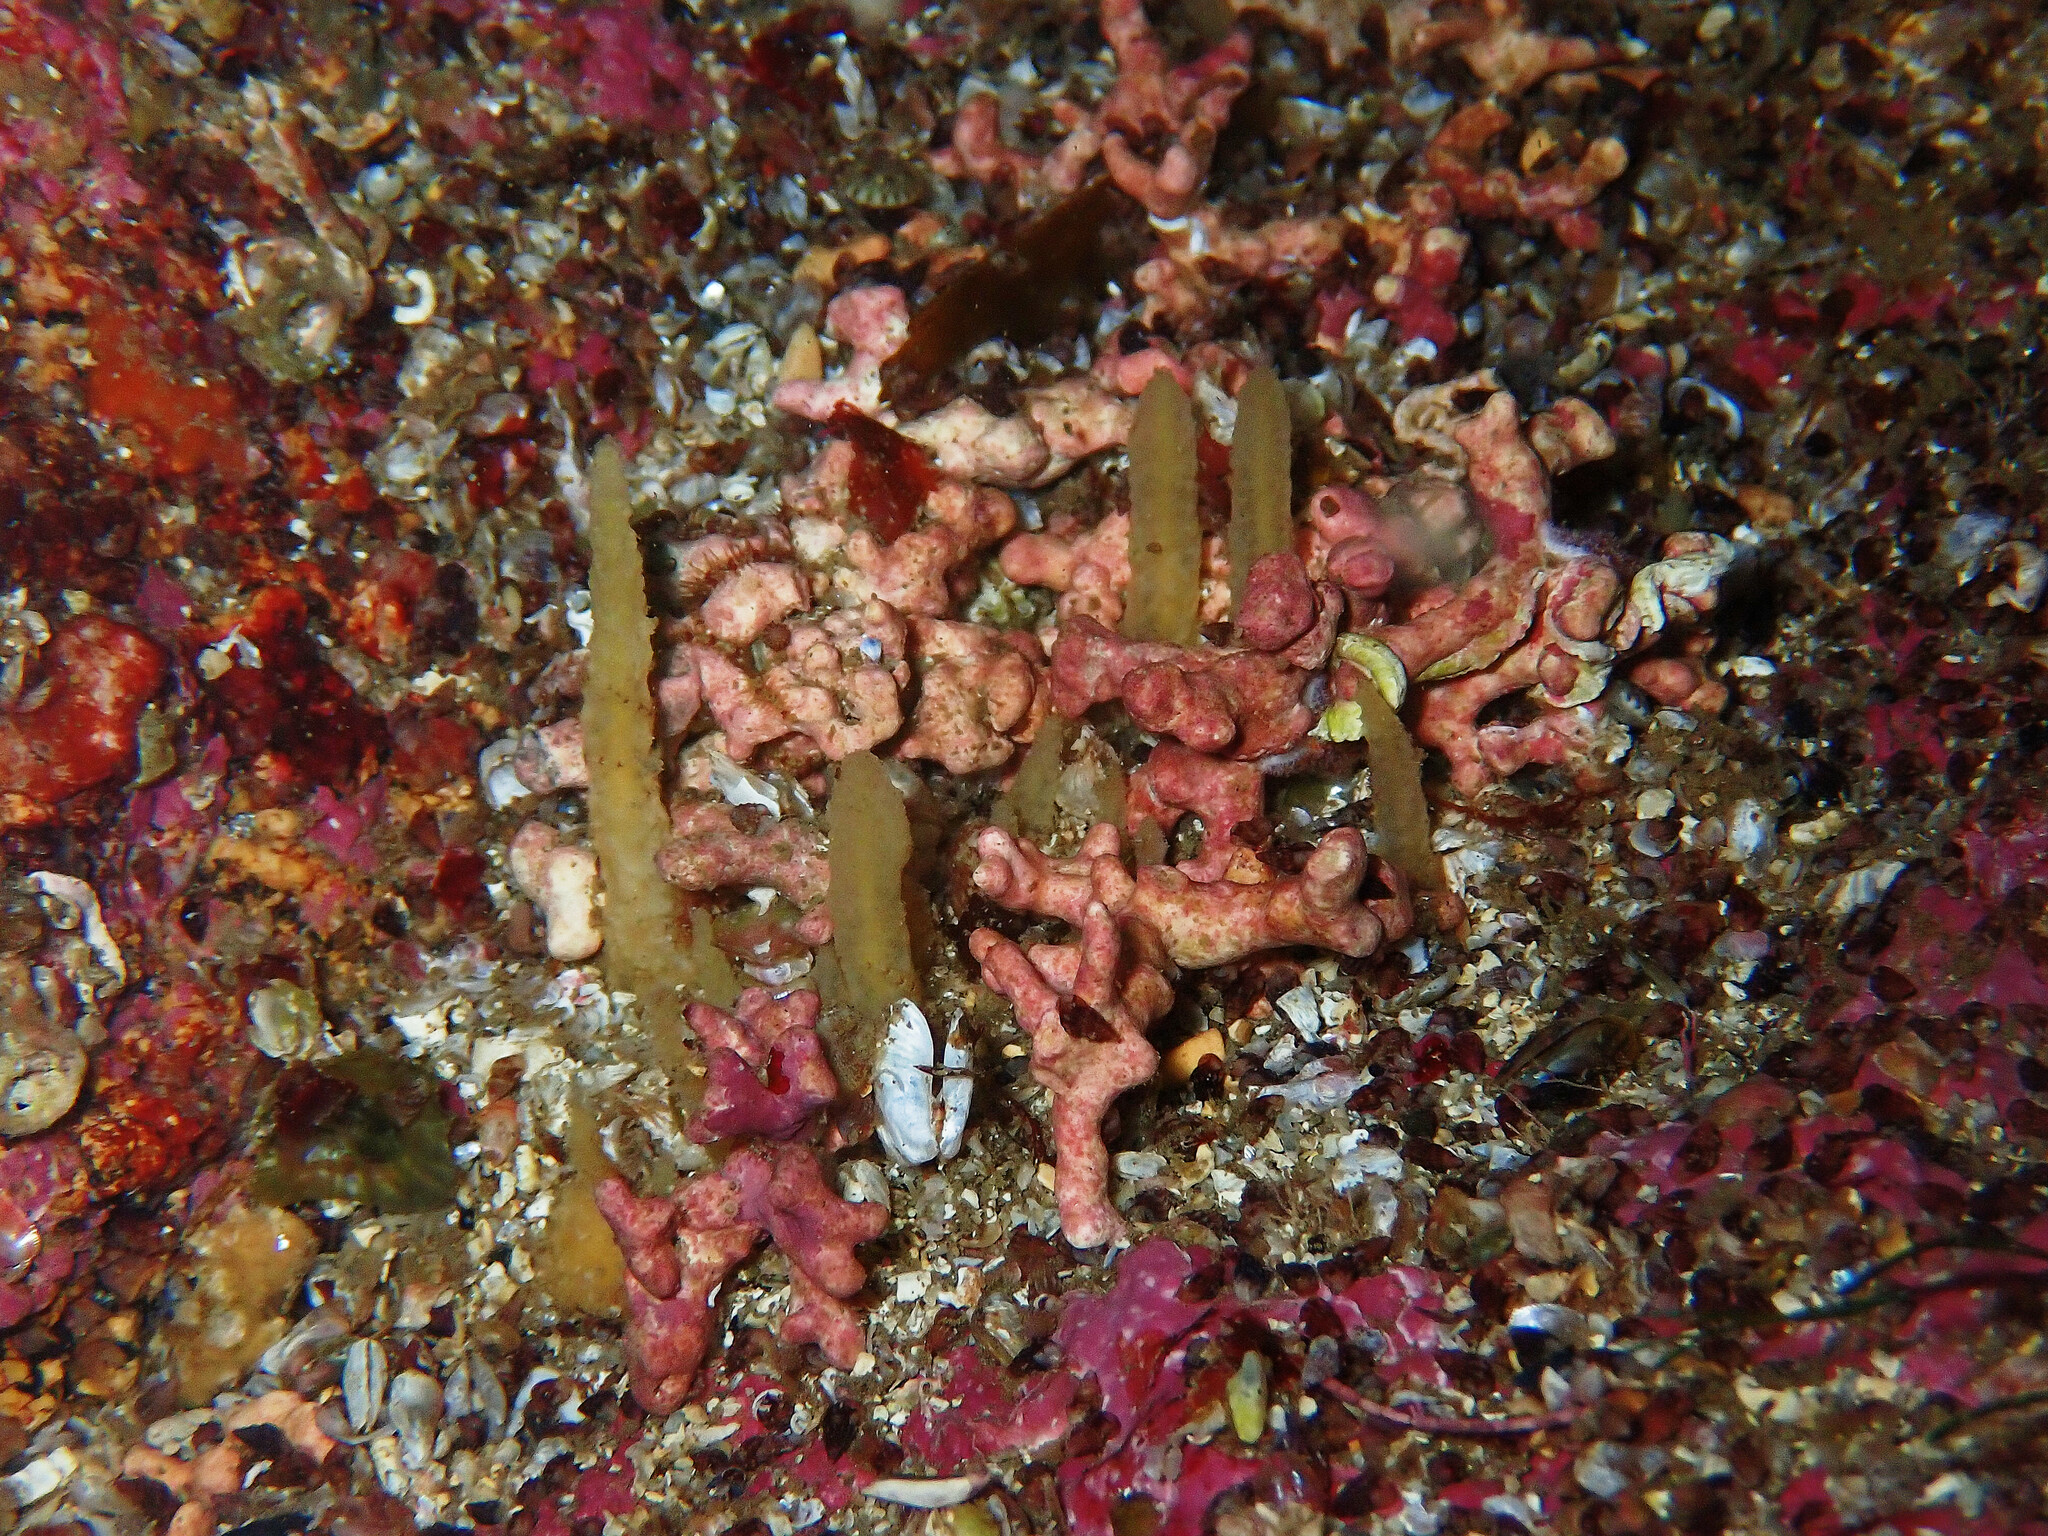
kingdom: Animalia
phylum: Porifera
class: Demospongiae
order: Suberitida
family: Halichondriidae
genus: Ciocalypta
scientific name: Ciocalypta penicillus
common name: Brush sponge
